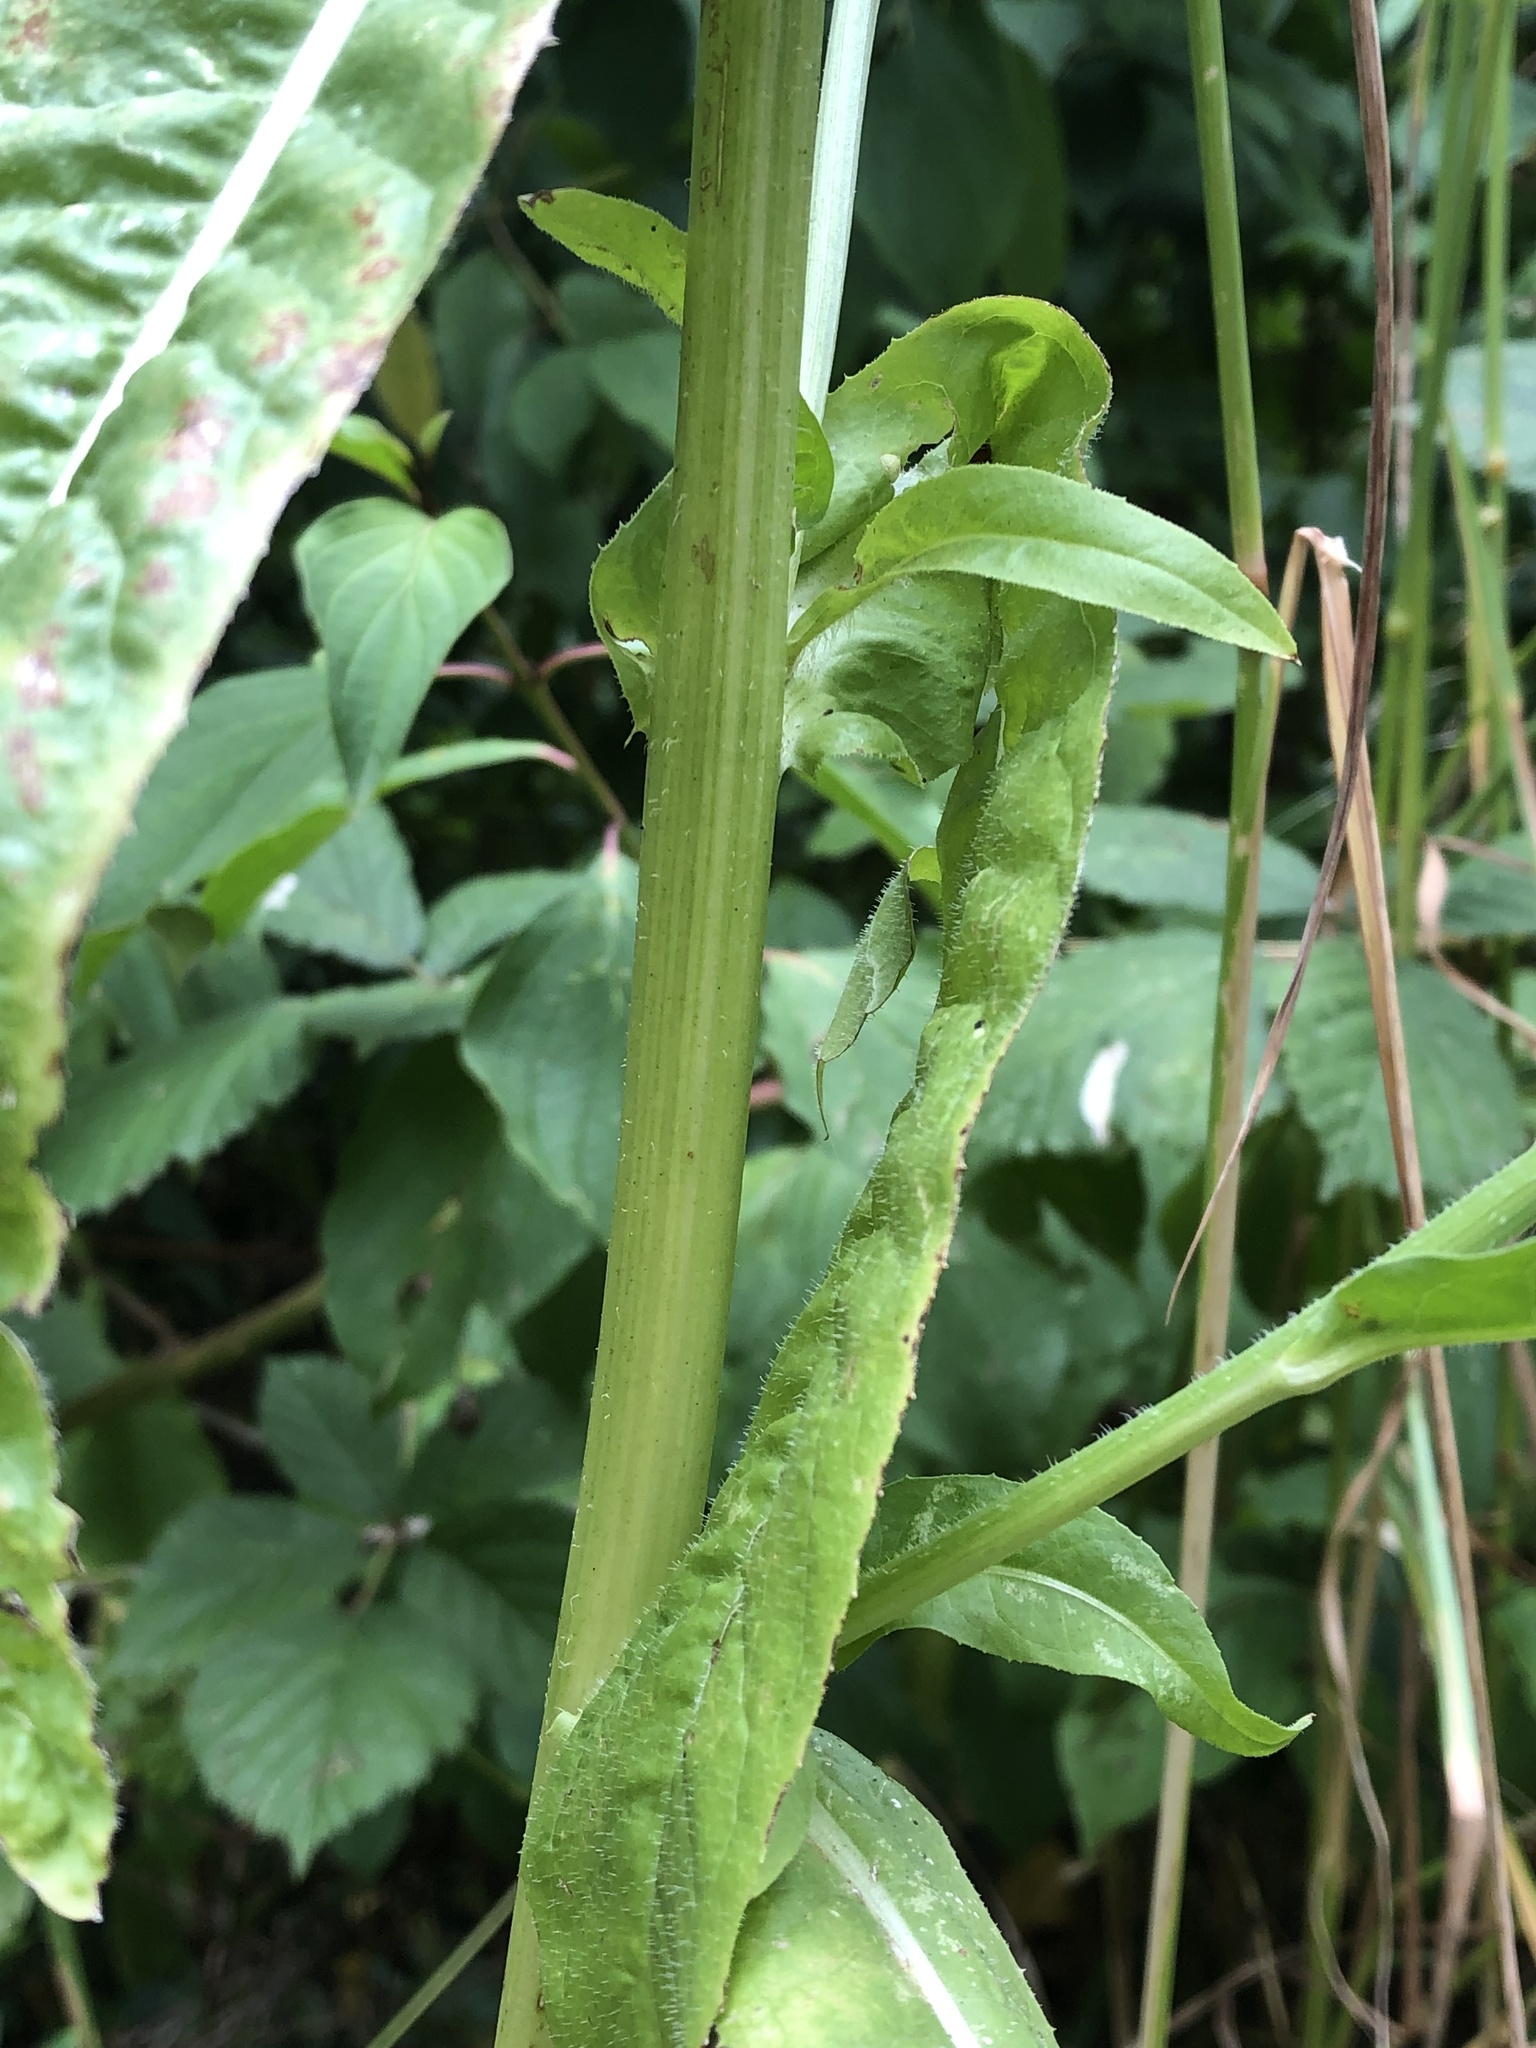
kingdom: Plantae
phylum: Tracheophyta
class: Magnoliopsida
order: Asterales
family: Asteraceae
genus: Cichorium
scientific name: Cichorium intybus
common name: Chicory
